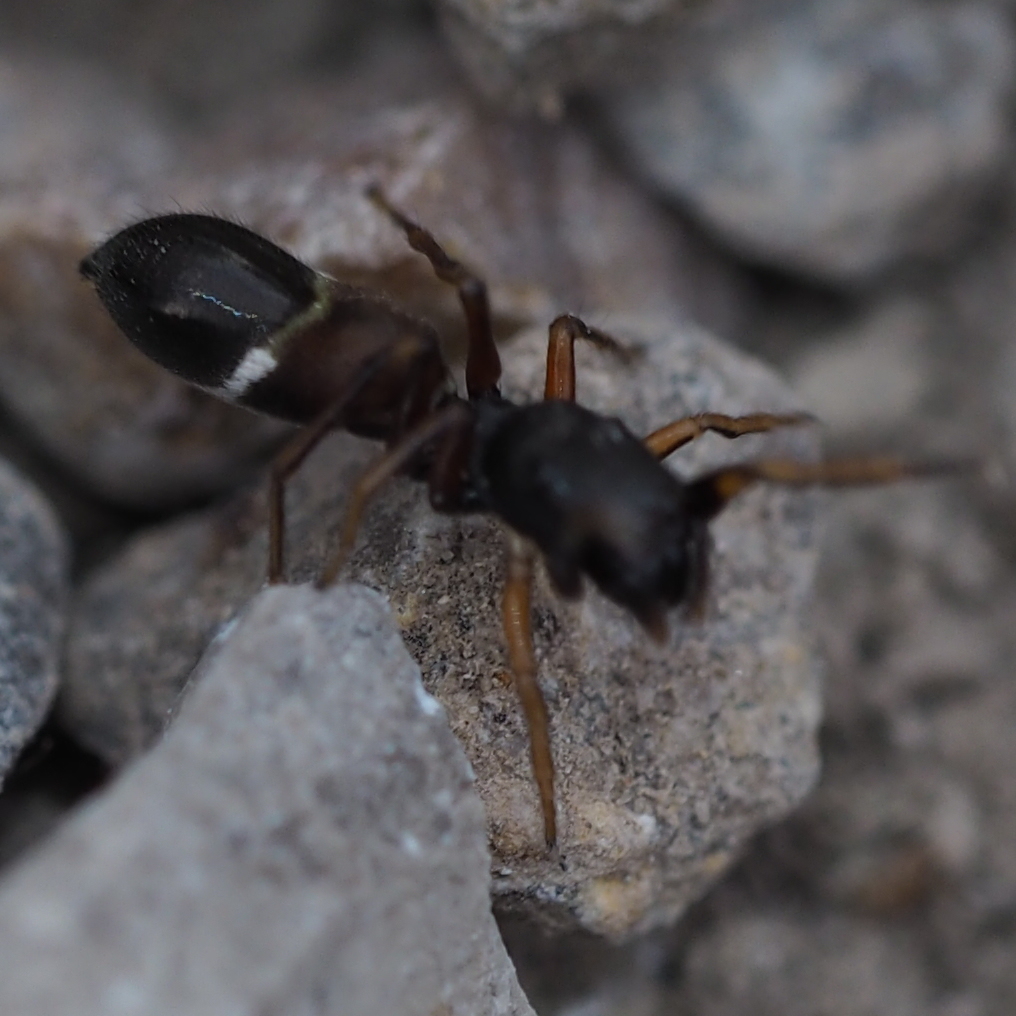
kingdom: Animalia
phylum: Arthropoda
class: Arachnida
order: Araneae
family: Salticidae
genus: Leptorchestes
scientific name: Leptorchestes berolinensis
